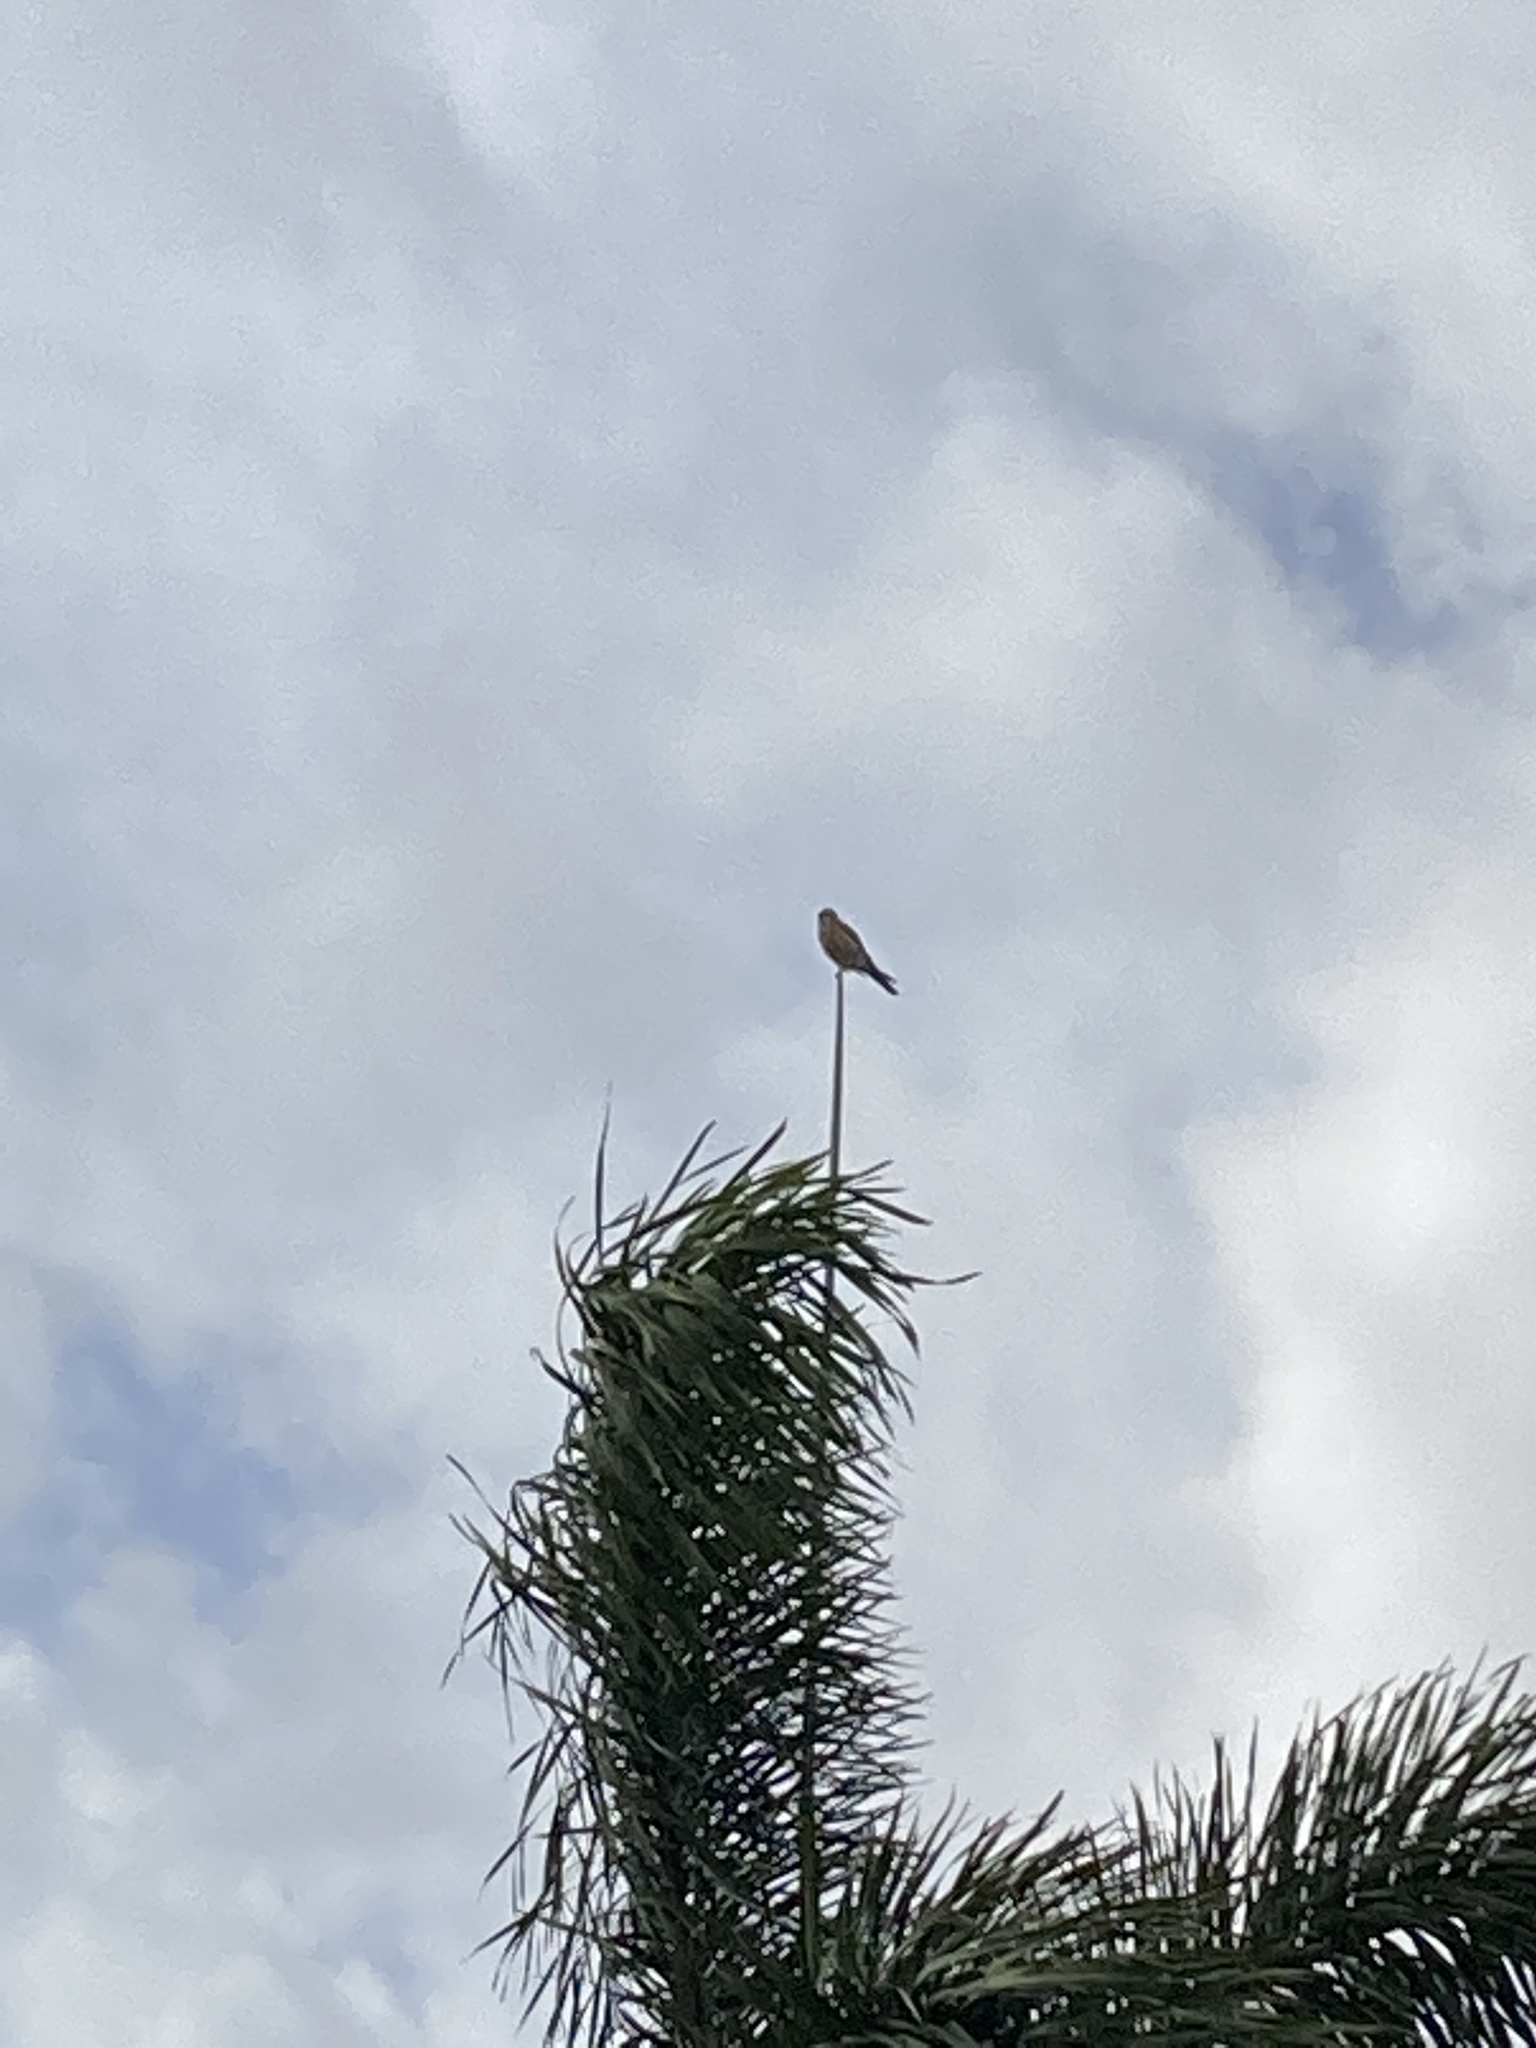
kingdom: Animalia
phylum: Chordata
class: Aves
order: Falconiformes
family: Falconidae
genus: Falco
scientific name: Falco sparverius
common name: American kestrel
